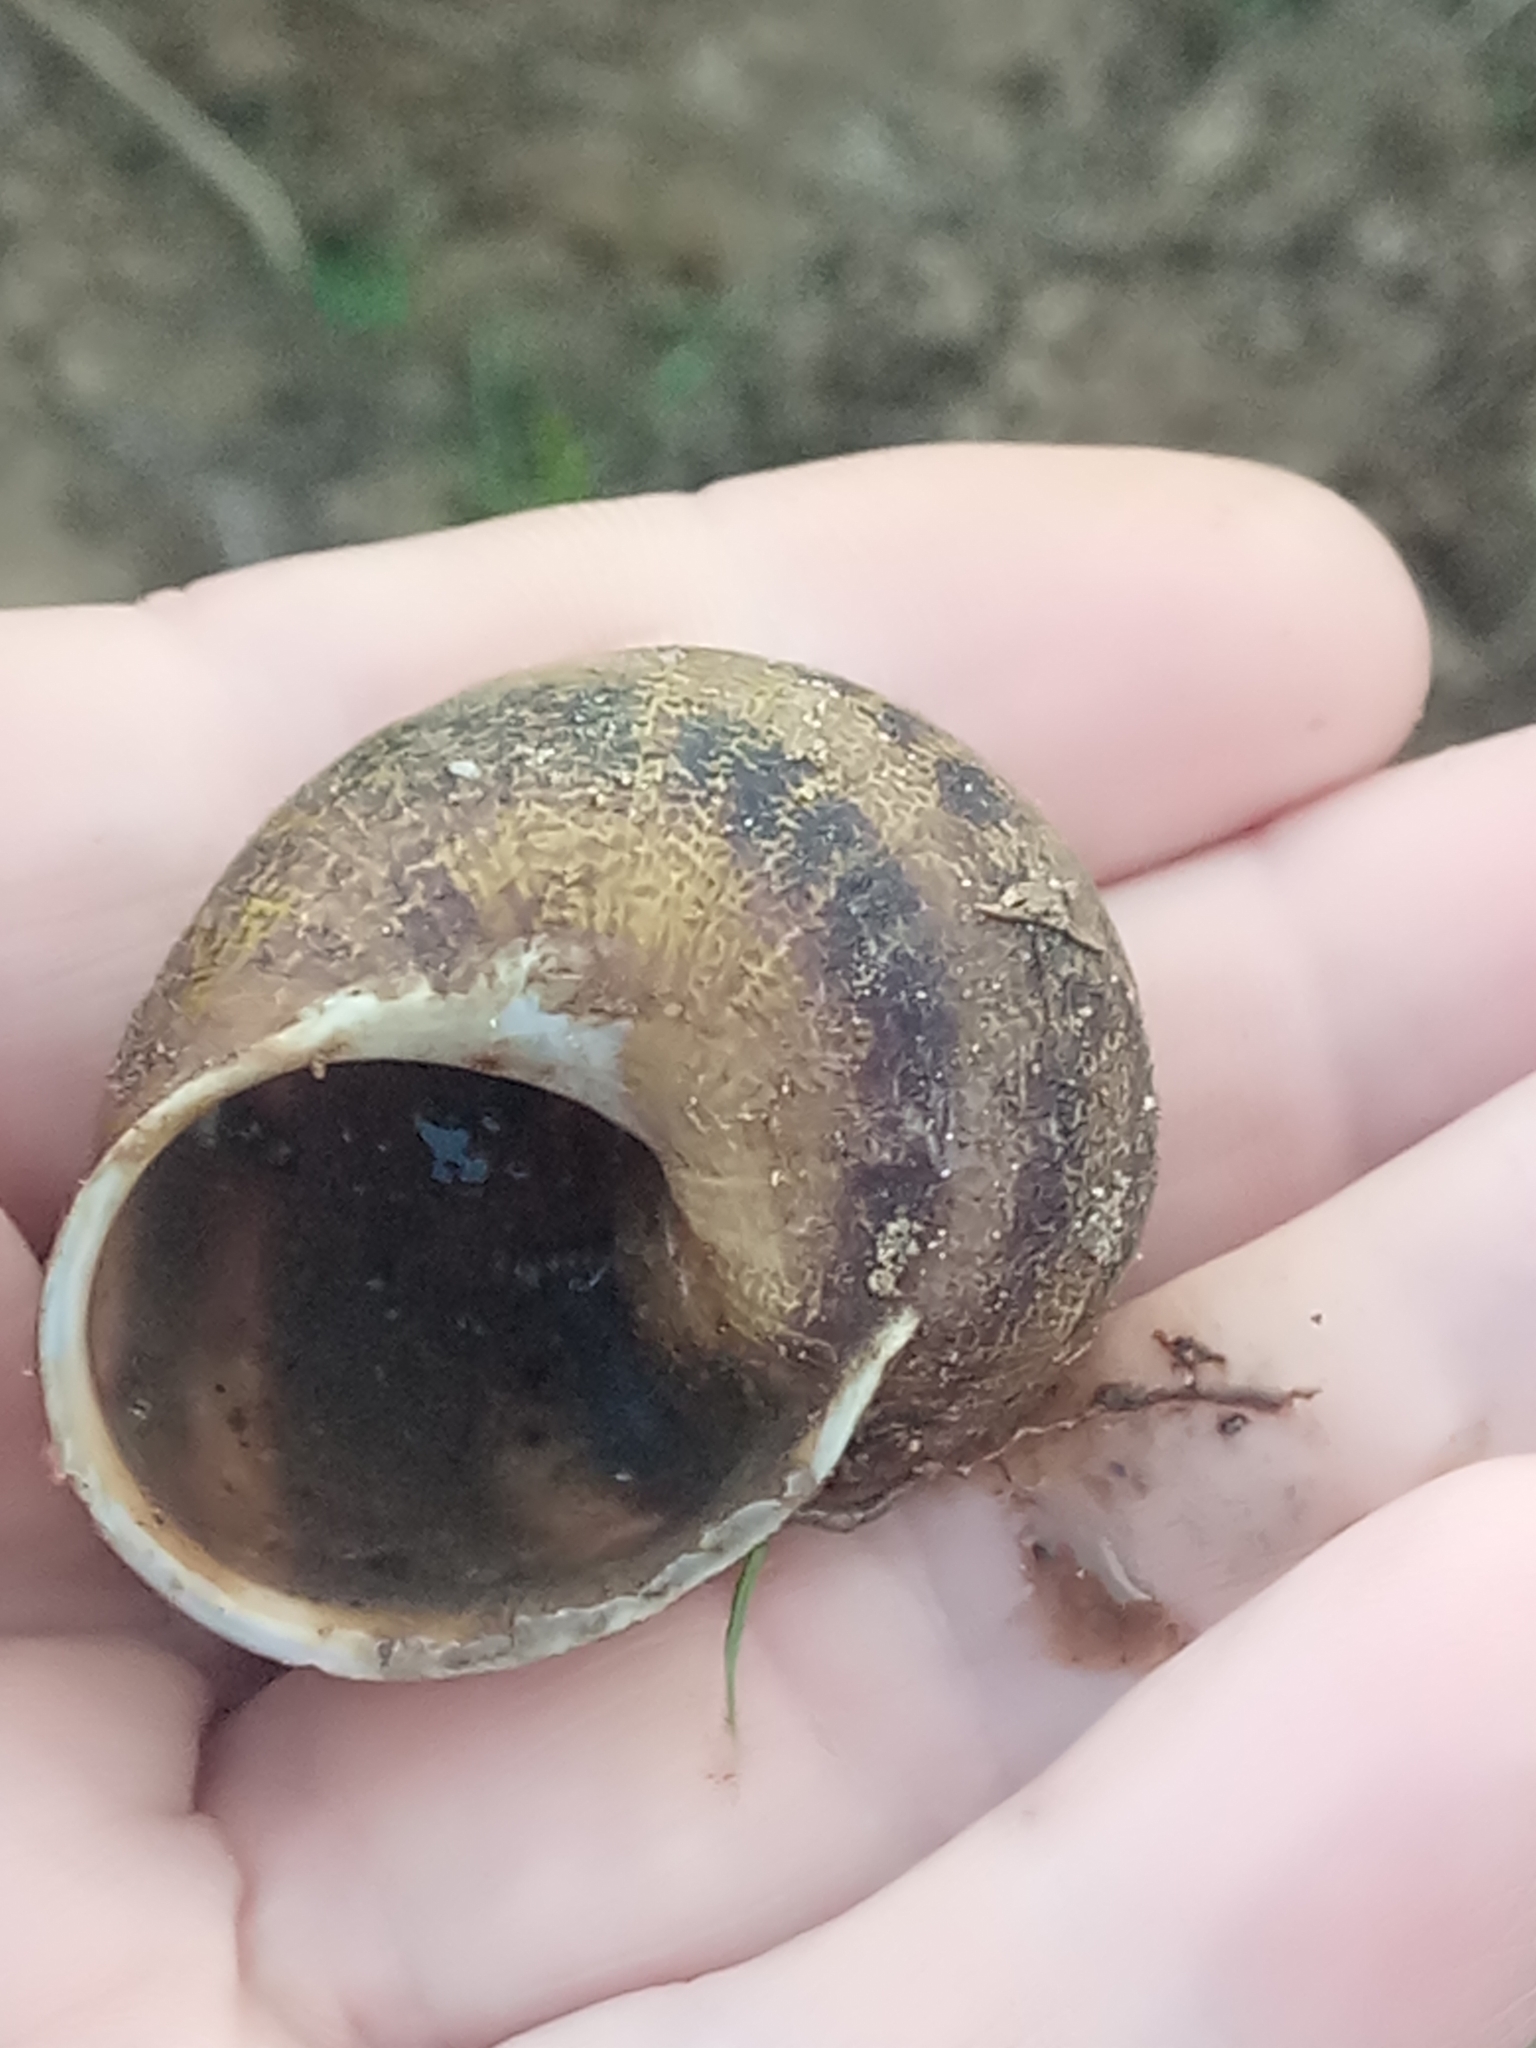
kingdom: Animalia
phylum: Mollusca
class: Gastropoda
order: Stylommatophora
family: Helicidae
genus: Cornu
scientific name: Cornu aspersum
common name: Brown garden snail
